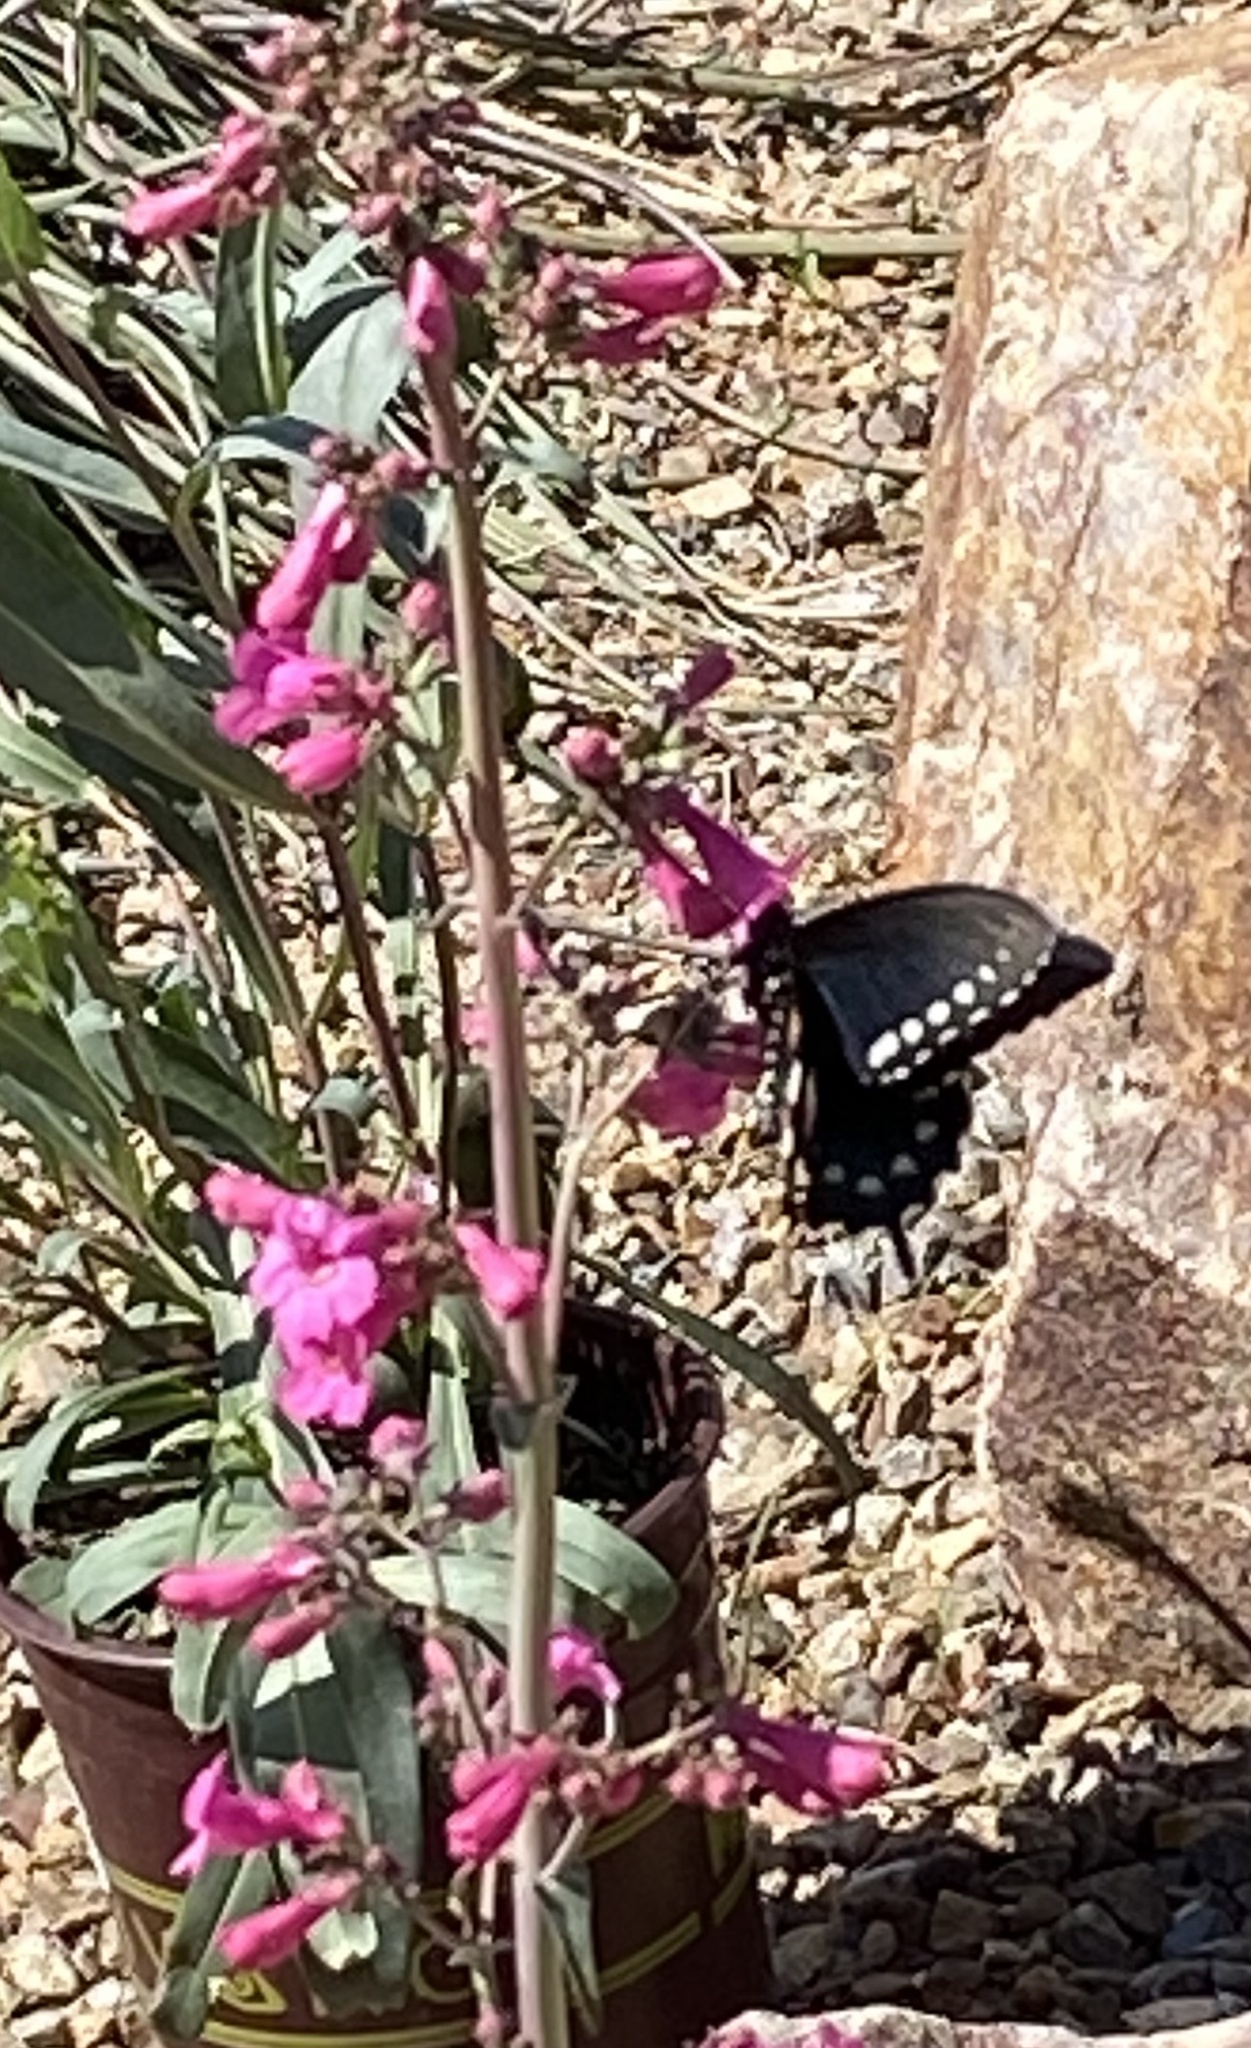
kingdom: Animalia
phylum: Arthropoda
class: Insecta
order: Lepidoptera
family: Papilionidae
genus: Battus
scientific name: Battus philenor
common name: Pipevine swallowtail
